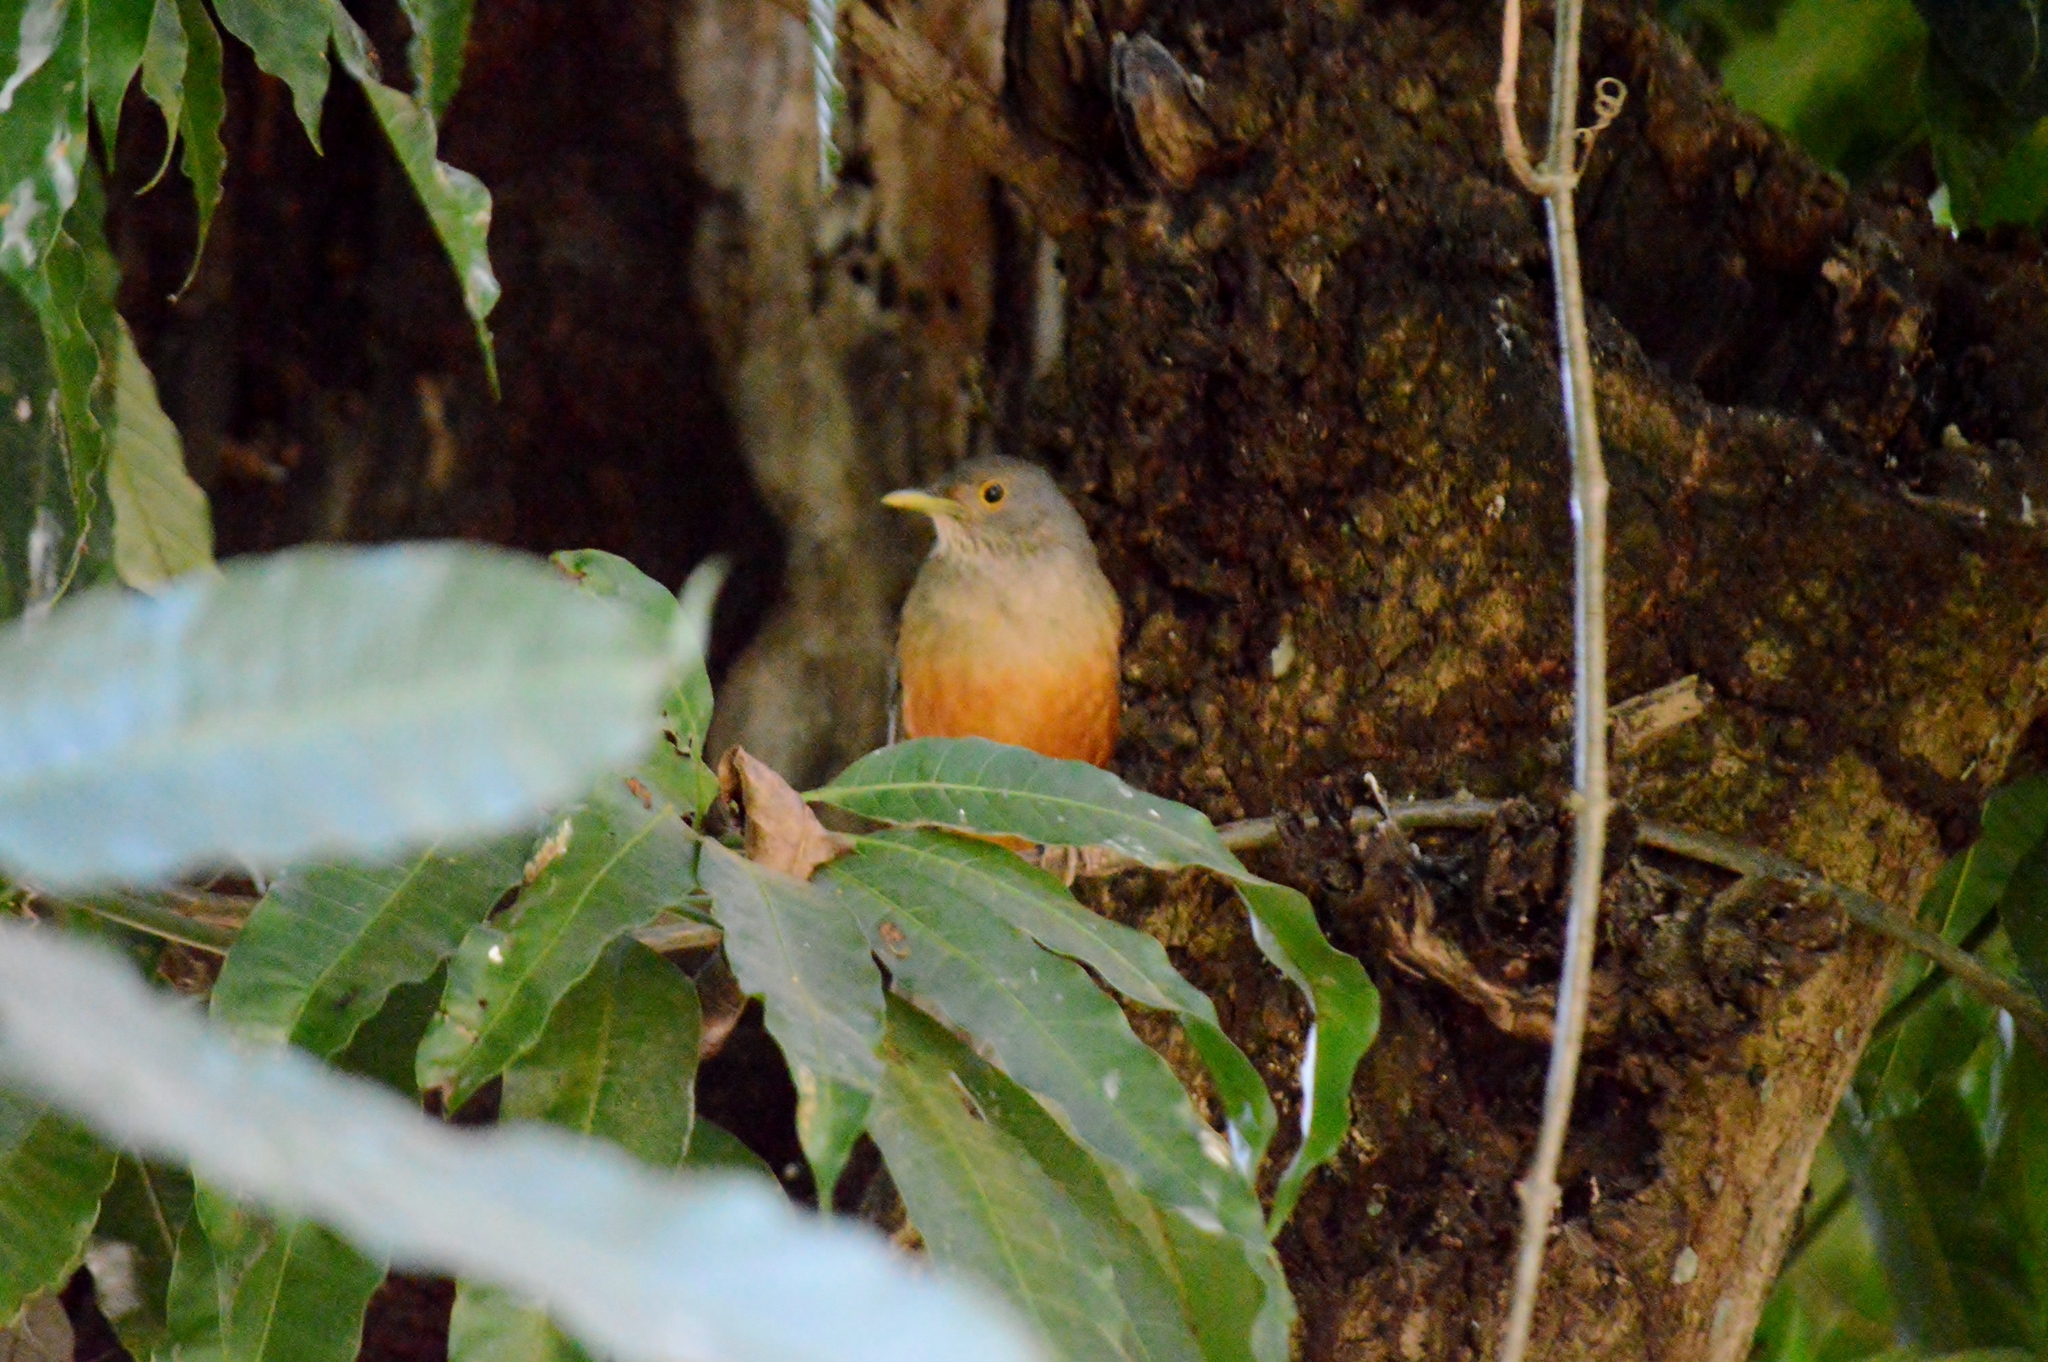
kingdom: Animalia
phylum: Chordata
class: Aves
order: Passeriformes
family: Turdidae
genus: Turdus
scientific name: Turdus rufiventris
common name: Rufous-bellied thrush
